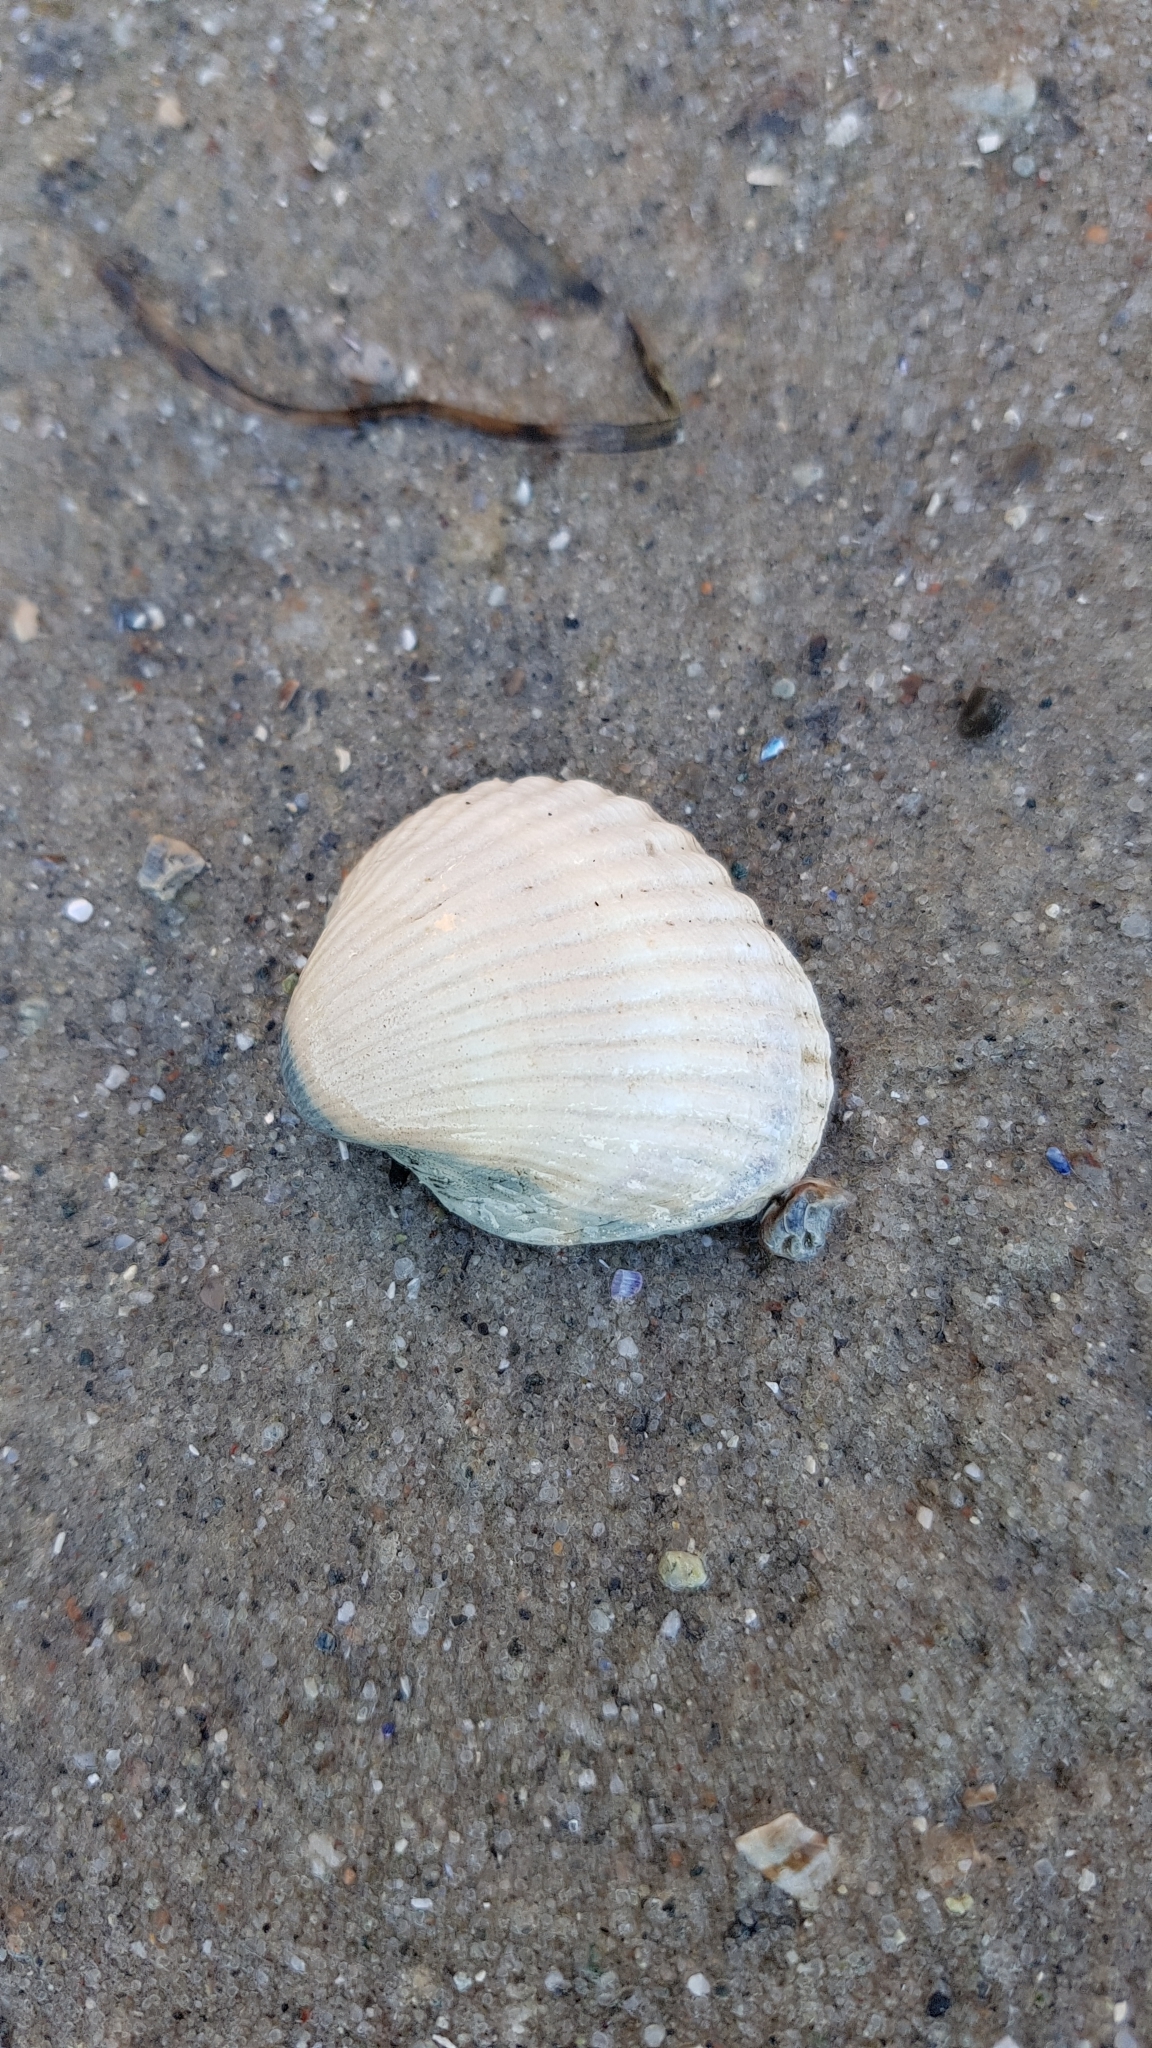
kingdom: Animalia
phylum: Mollusca
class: Bivalvia
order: Cardiida
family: Cardiidae
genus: Cerastoderma
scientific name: Cerastoderma edule
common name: Common cockle
